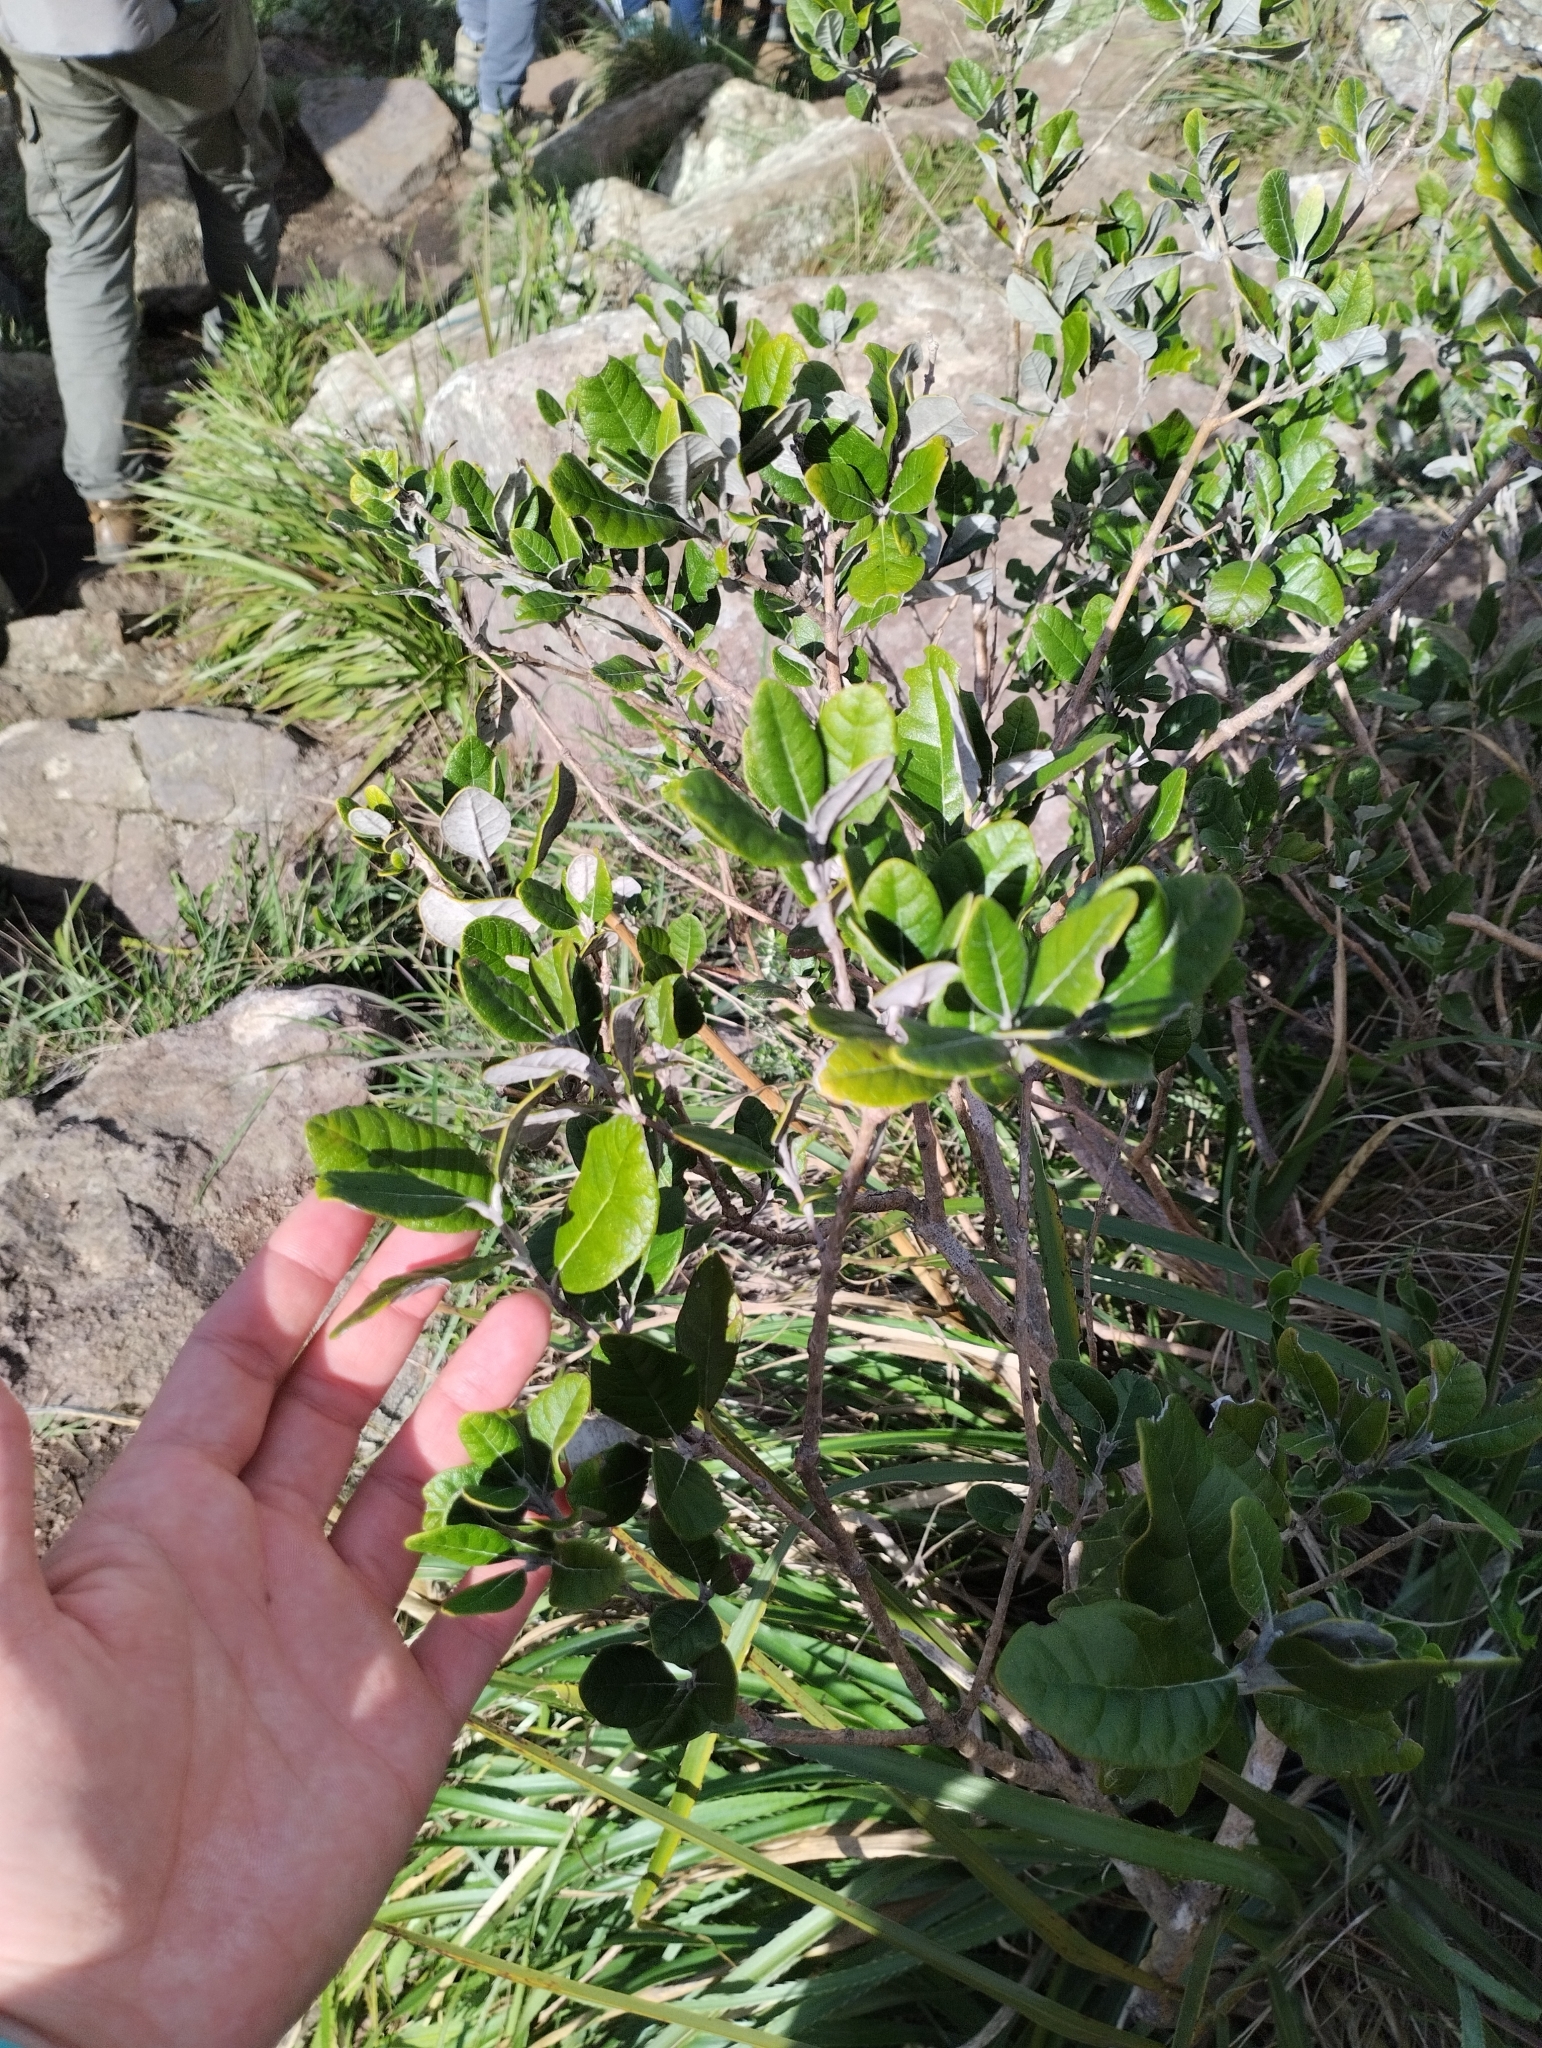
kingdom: Plantae
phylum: Tracheophyta
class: Magnoliopsida
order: Myrtales
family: Myrtaceae
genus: Feijoa
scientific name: Feijoa sellowiana
